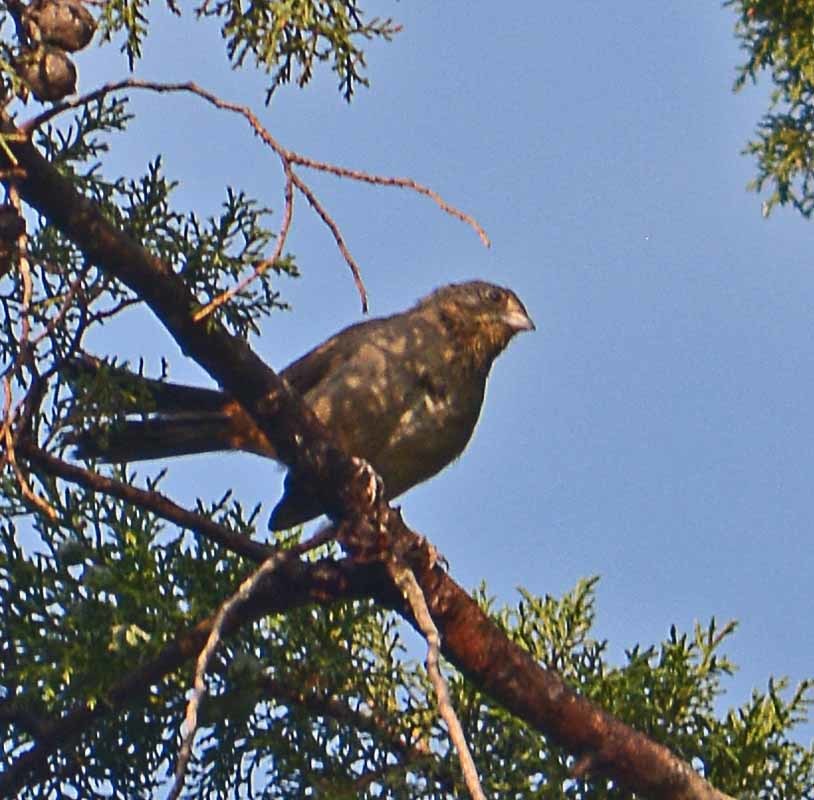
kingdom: Animalia
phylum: Chordata
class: Aves
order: Passeriformes
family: Passerellidae
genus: Melozone
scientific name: Melozone fusca
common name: Canyon towhee
